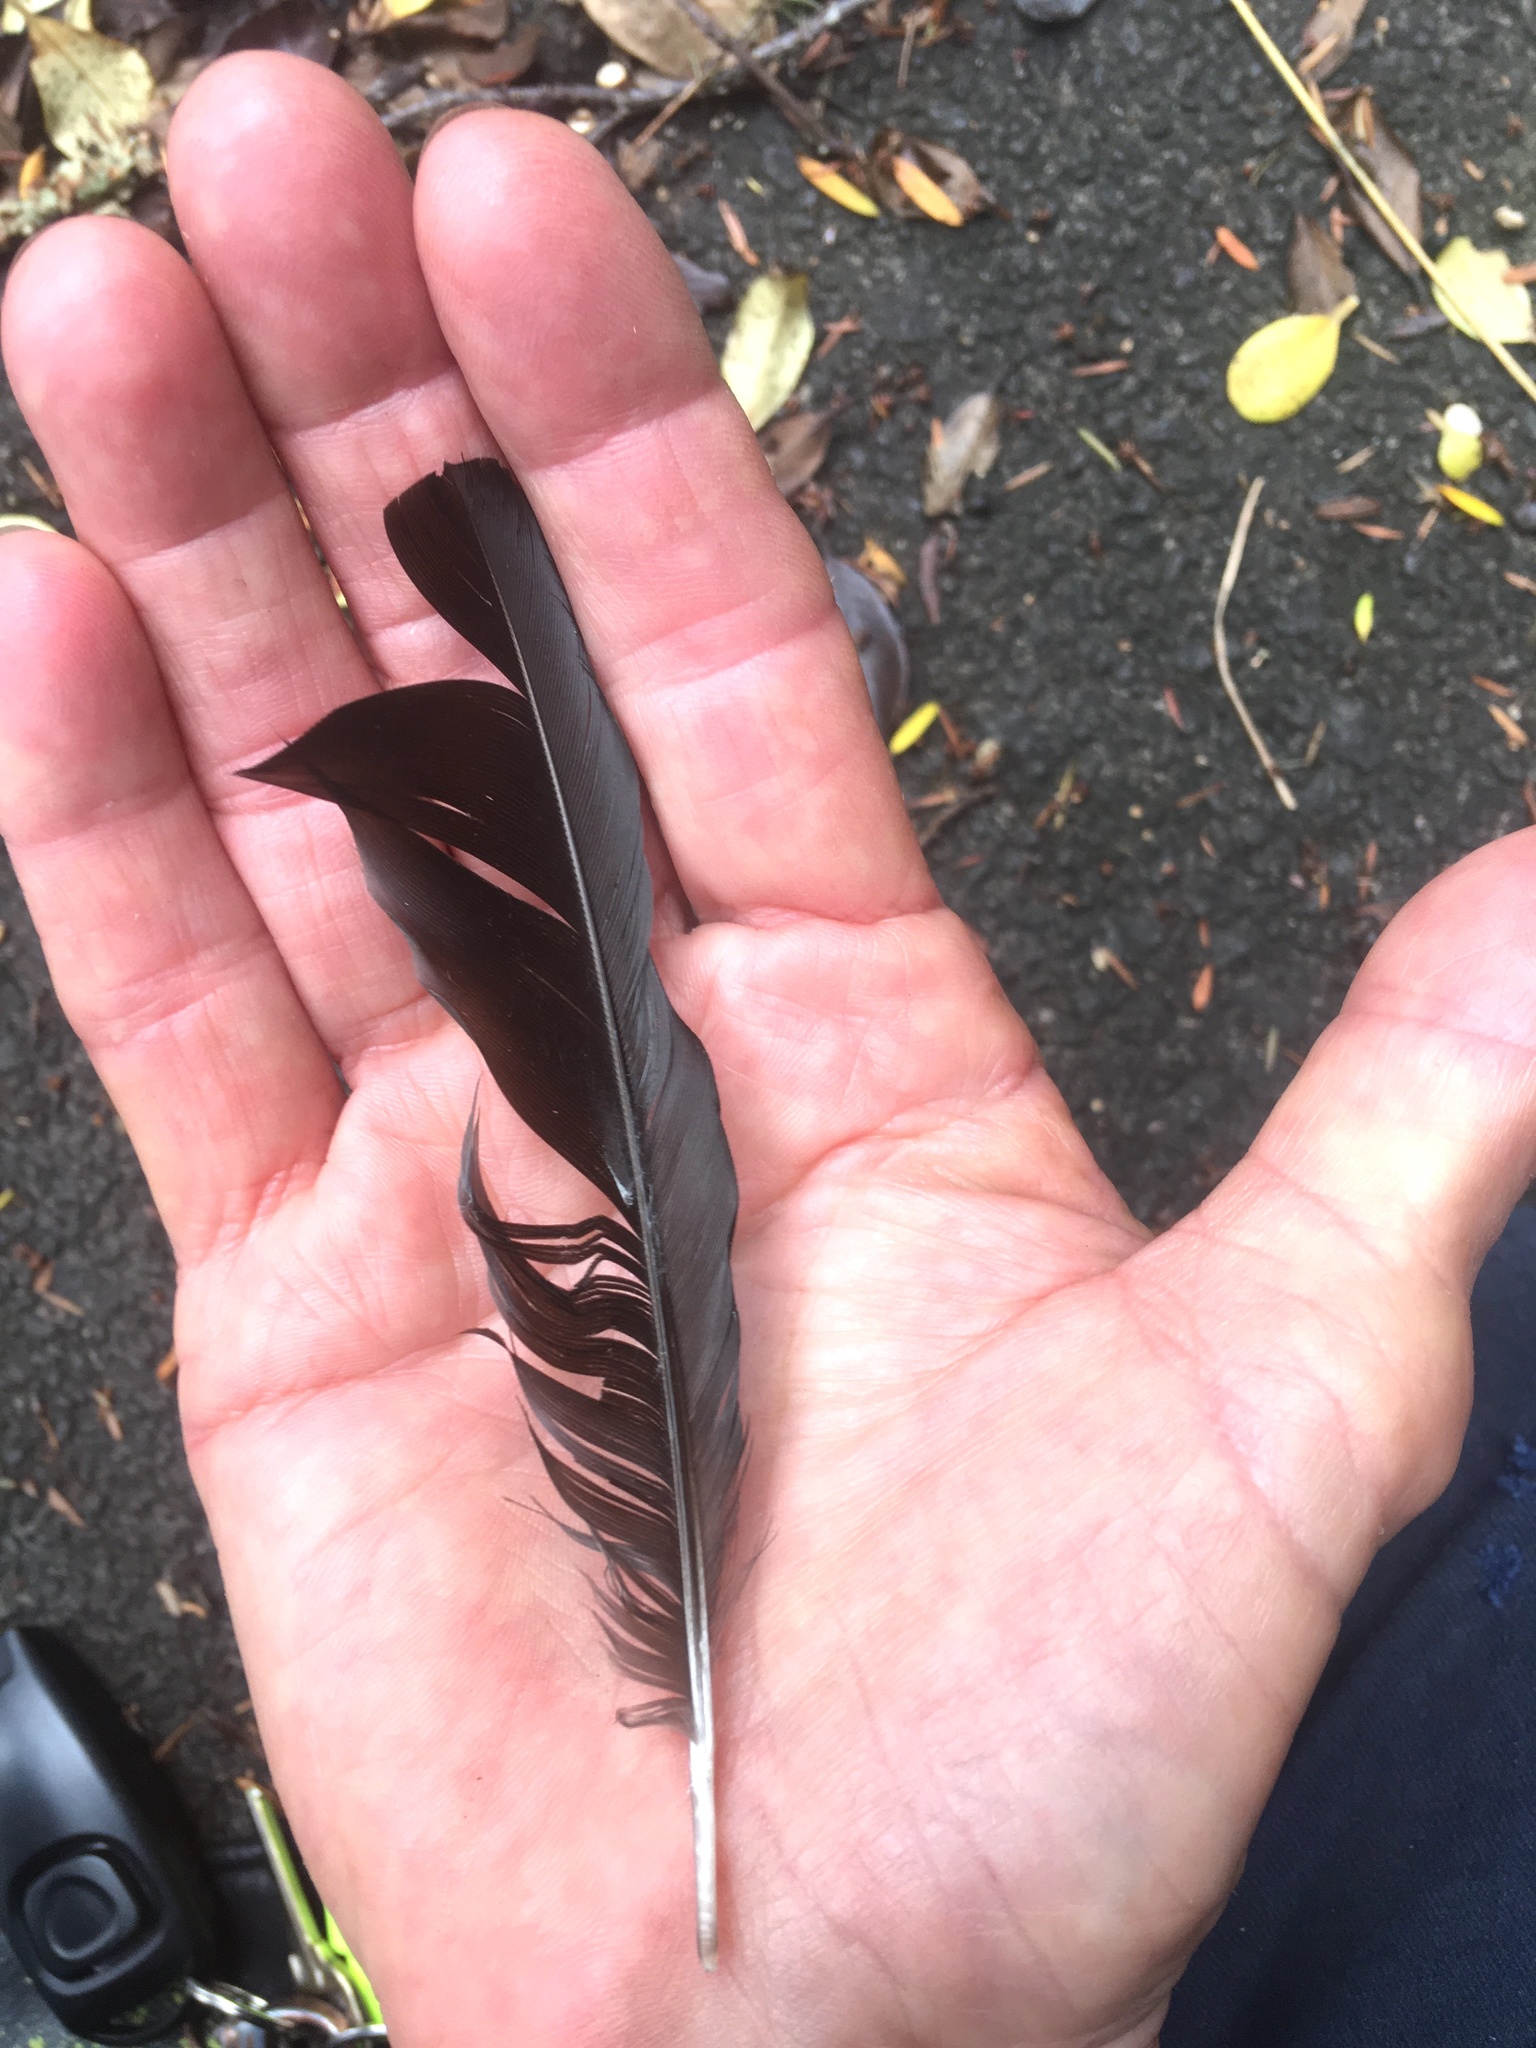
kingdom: Animalia
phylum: Chordata
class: Aves
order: Passeriformes
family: Meliphagidae
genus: Prosthemadera
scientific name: Prosthemadera novaeseelandiae
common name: Tui
